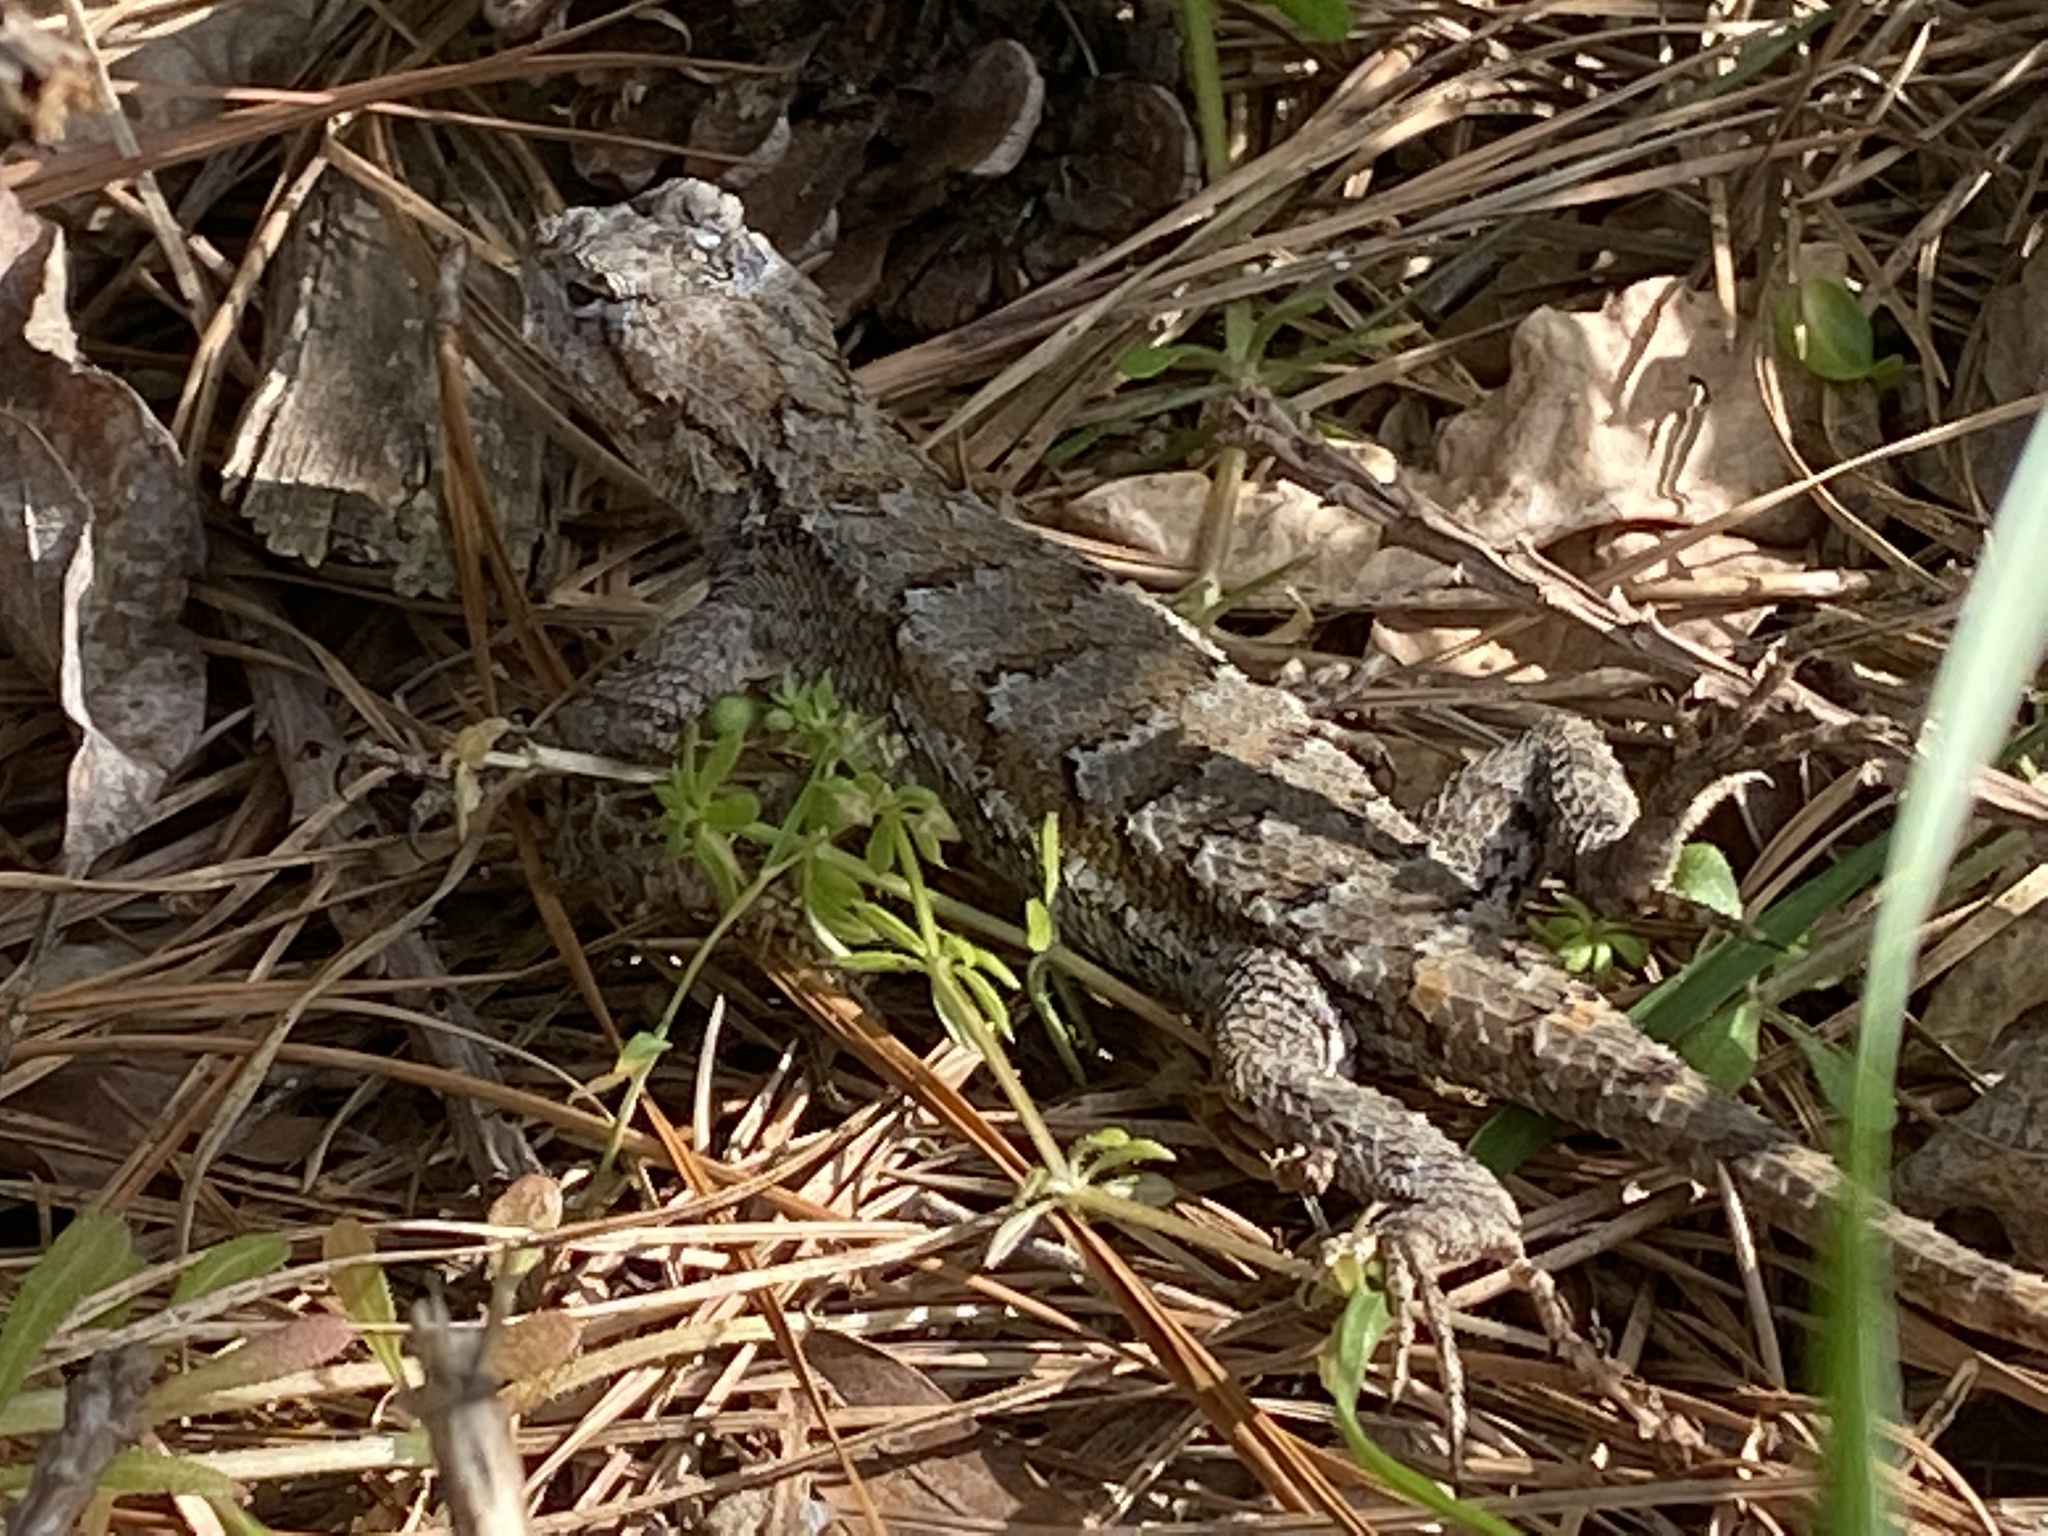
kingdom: Animalia
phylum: Chordata
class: Squamata
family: Phrynosomatidae
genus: Sceloporus
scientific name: Sceloporus undulatus
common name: Eastern fence lizard
